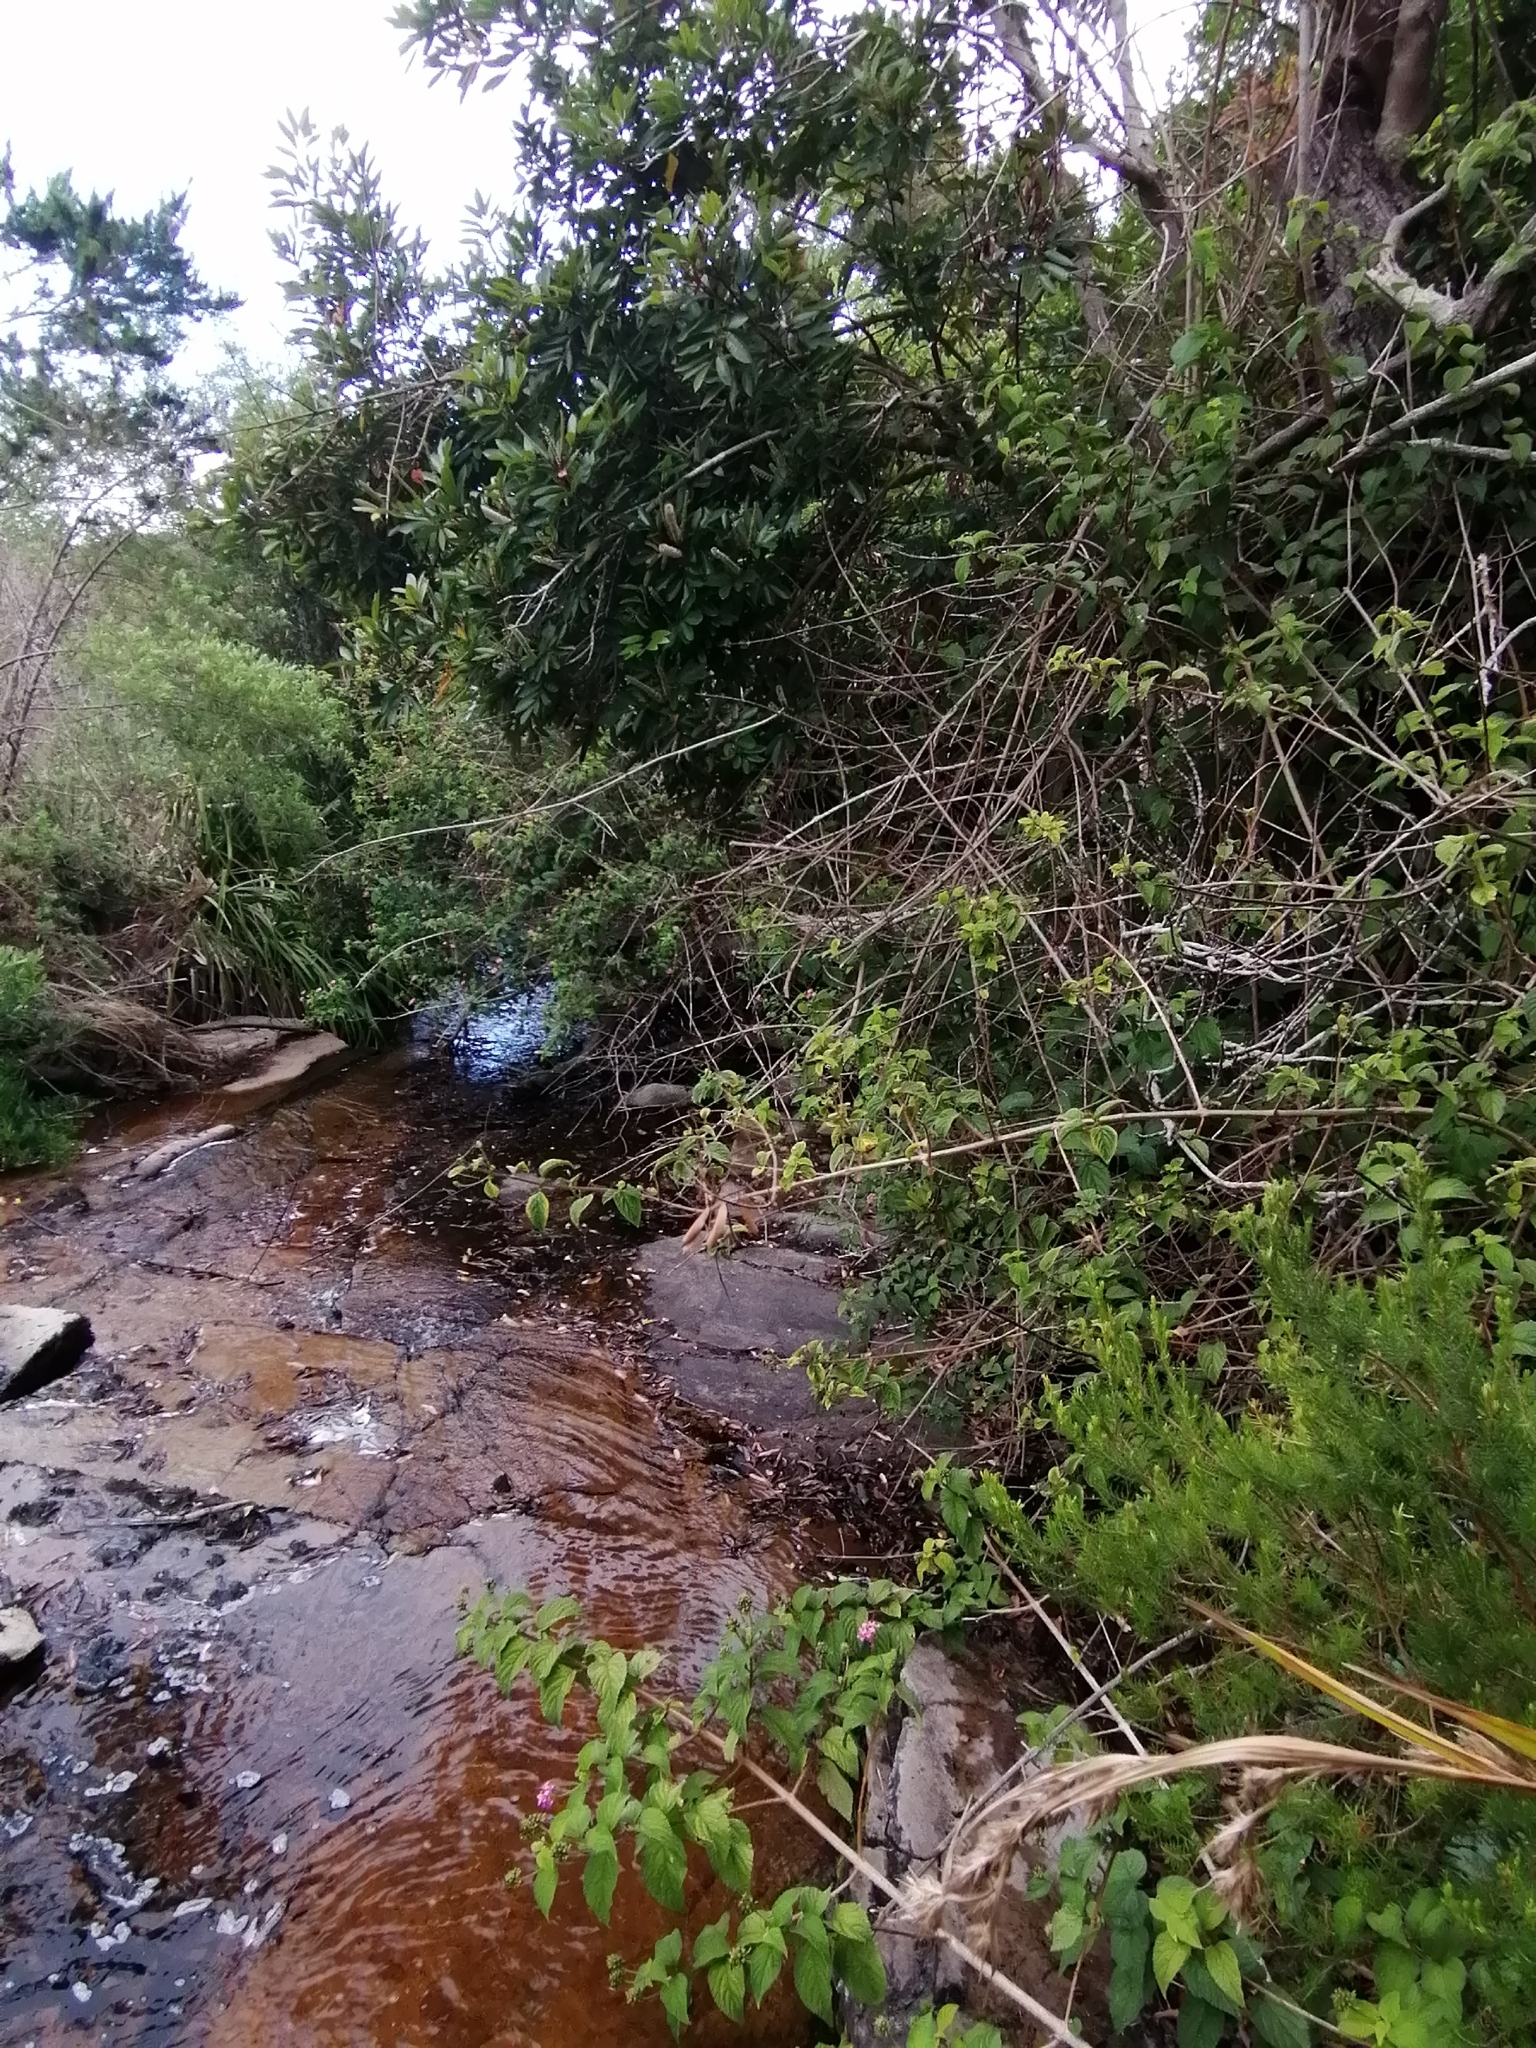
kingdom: Plantae
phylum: Tracheophyta
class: Magnoliopsida
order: Lamiales
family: Verbenaceae
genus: Lantana
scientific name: Lantana camara
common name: Lantana
